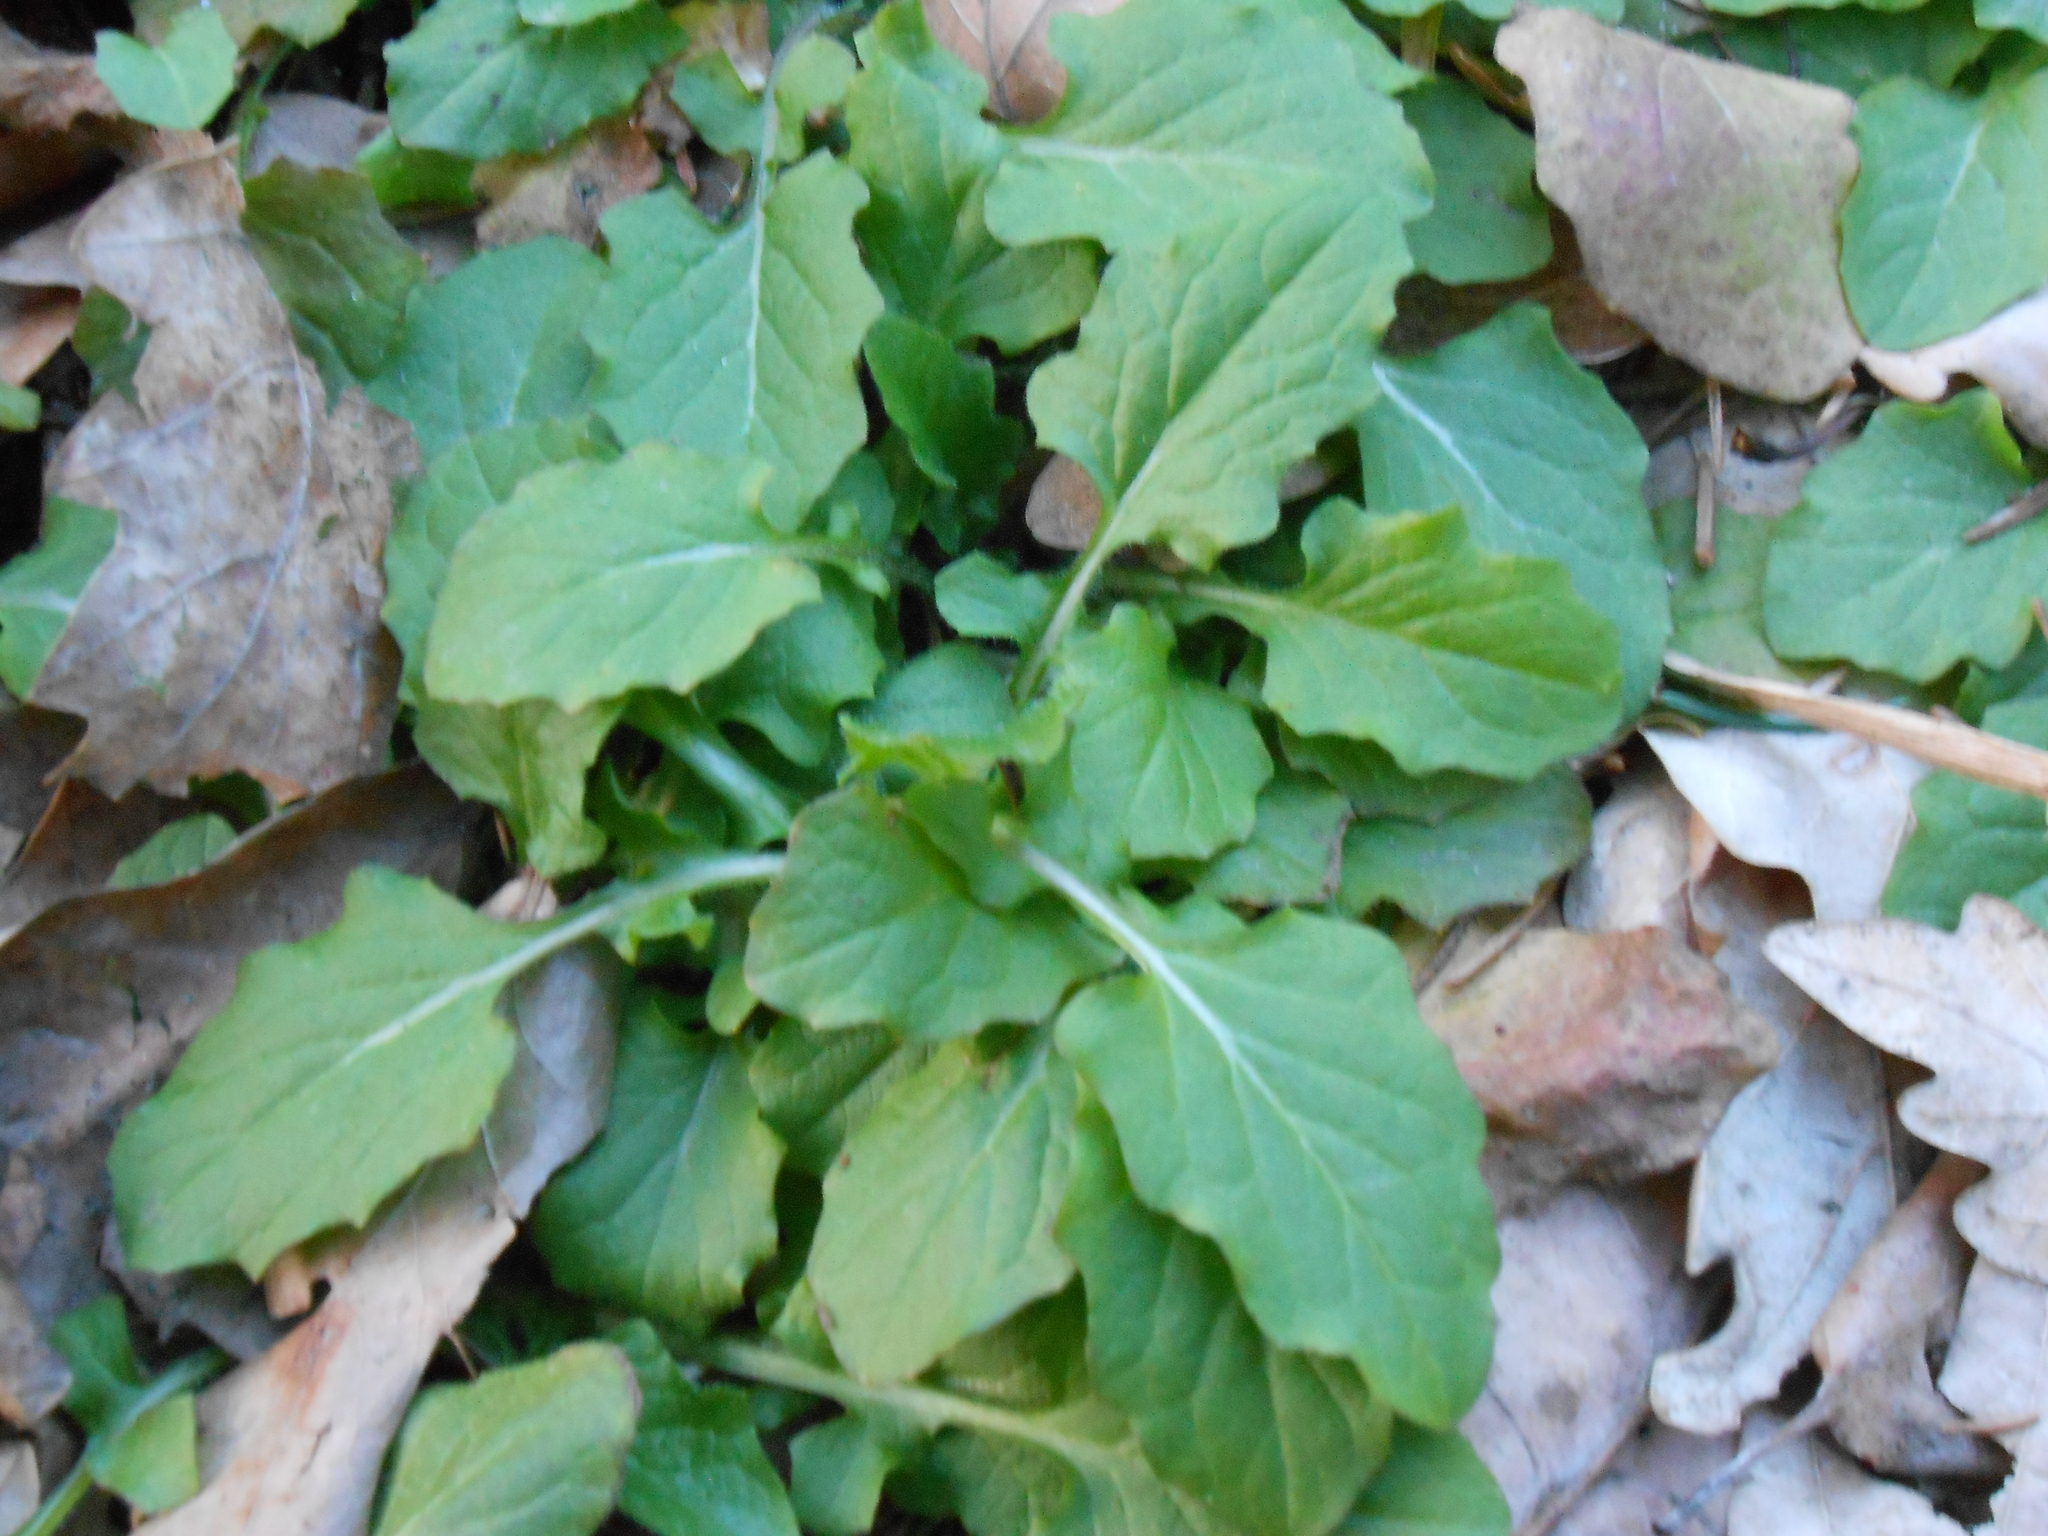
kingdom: Plantae
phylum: Tracheophyta
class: Magnoliopsida
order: Asterales
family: Asteraceae
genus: Lapsana
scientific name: Lapsana communis
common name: Nipplewort
